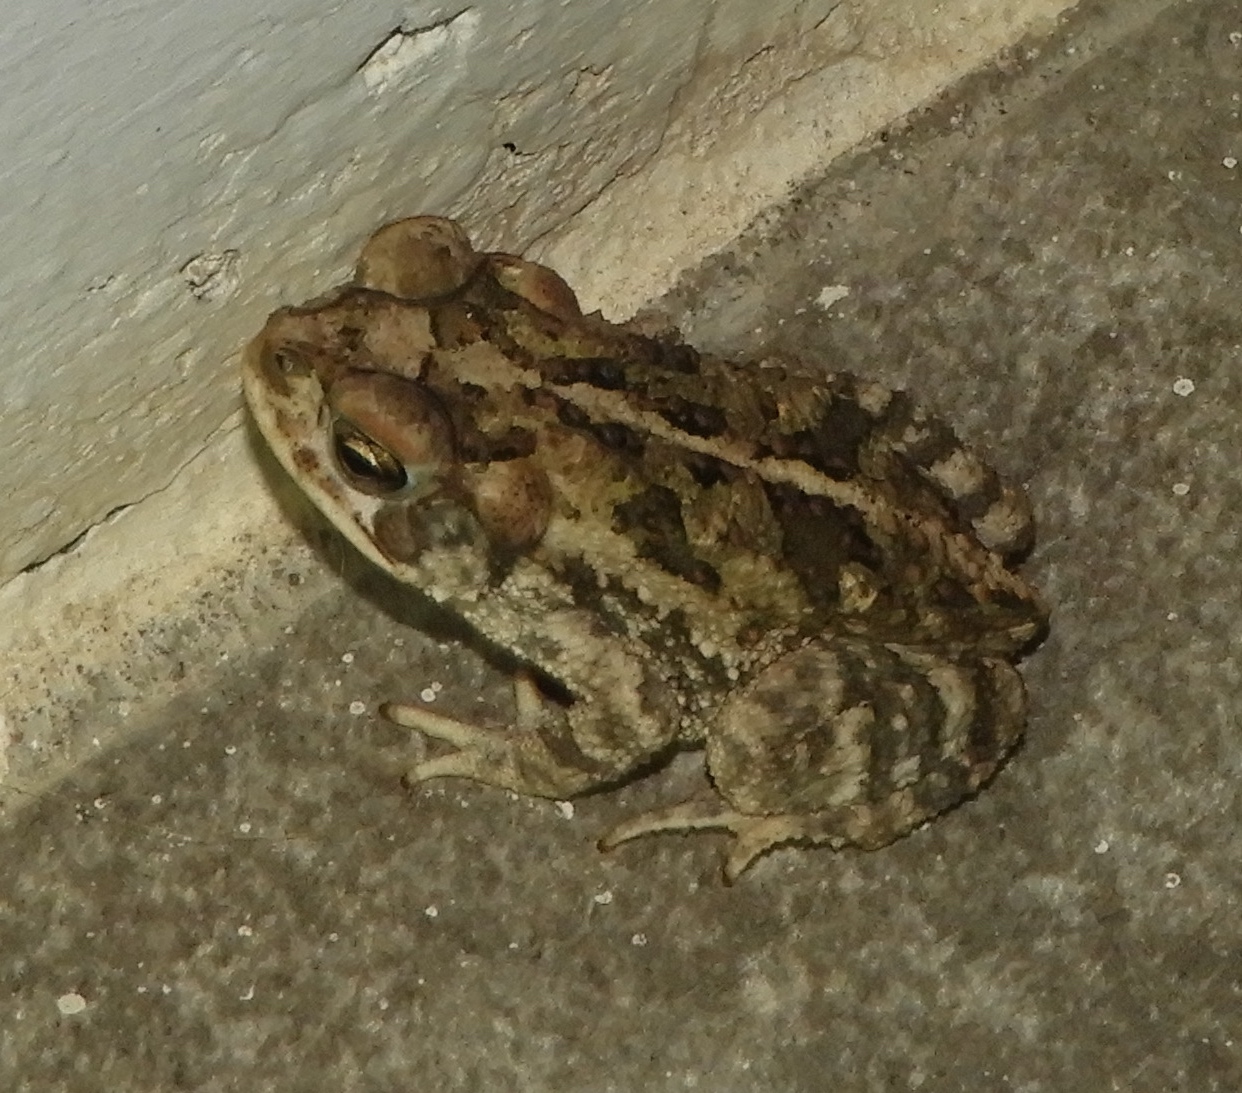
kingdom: Animalia
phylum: Chordata
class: Amphibia
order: Anura
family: Bufonidae
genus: Incilius
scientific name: Incilius mazatlanensis
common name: Sinaloa toad
